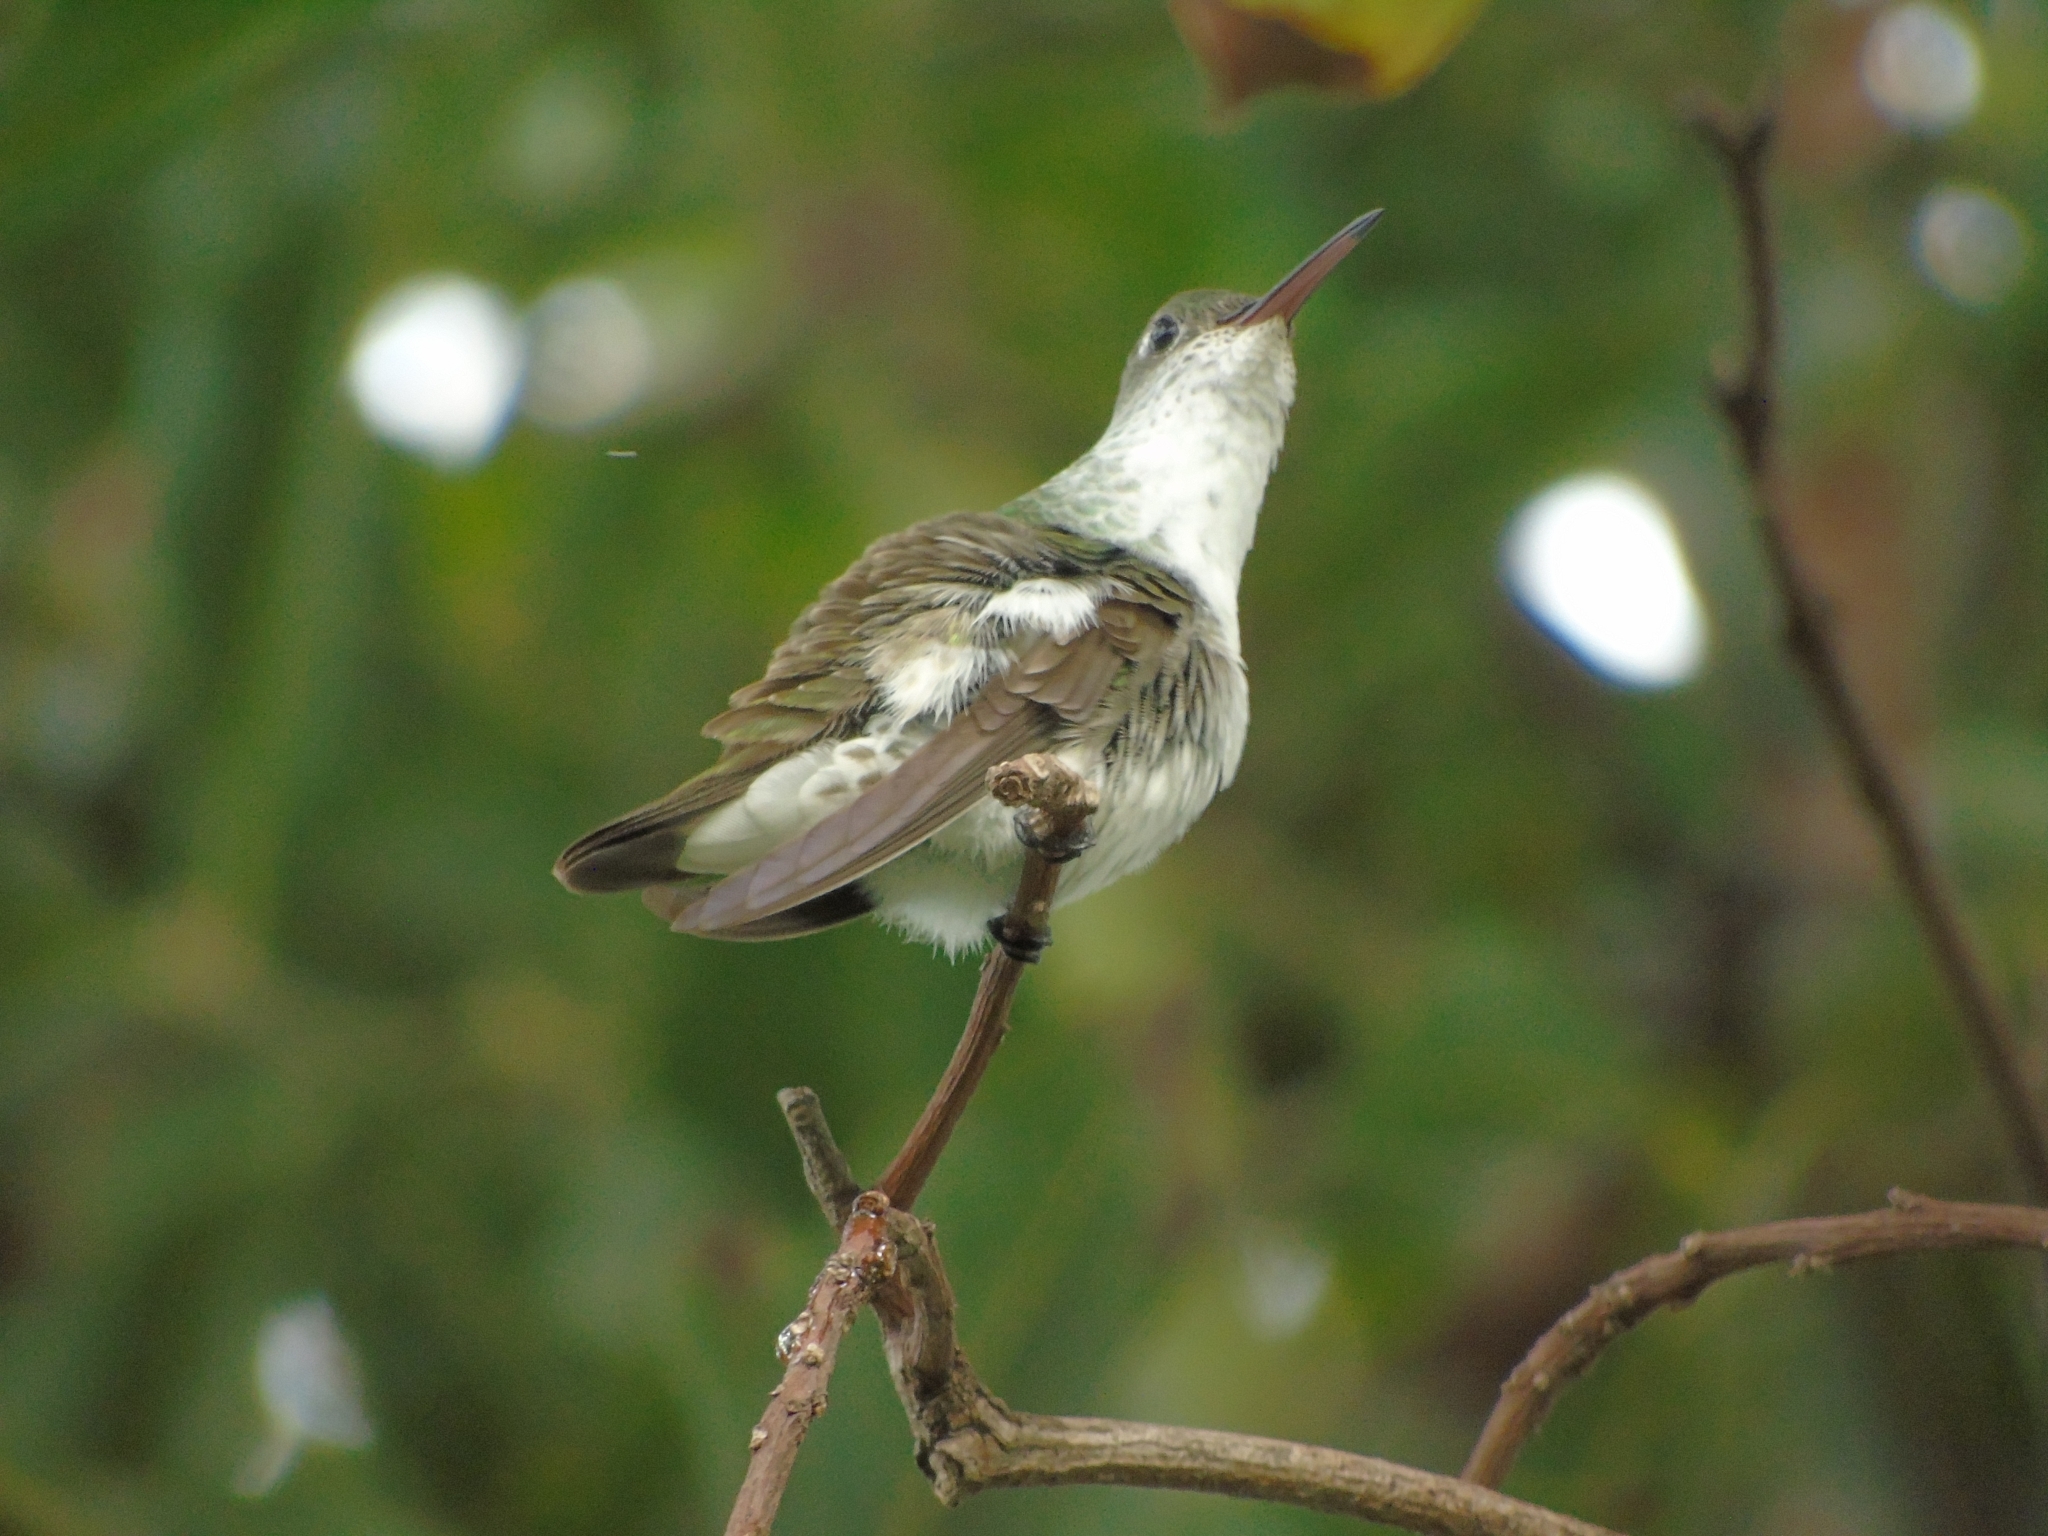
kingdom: Animalia
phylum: Chordata
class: Aves
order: Apodiformes
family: Trochilidae
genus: Elliotomyia
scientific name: Elliotomyia chionogaster
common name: White-bellied hummingbird
